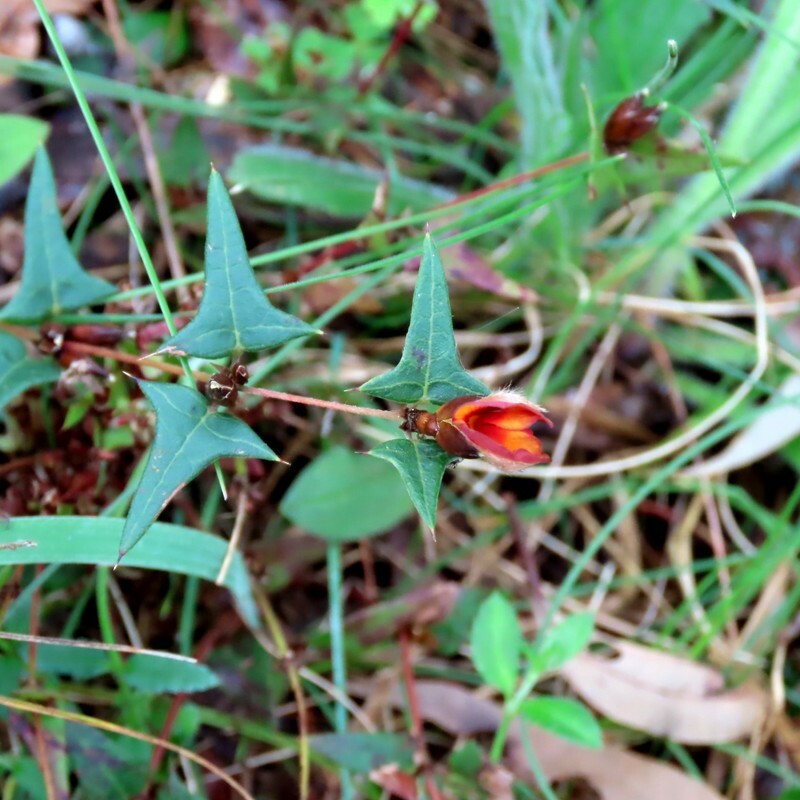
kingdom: Plantae
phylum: Tracheophyta
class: Magnoliopsida
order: Fabales
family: Fabaceae
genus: Platylobium
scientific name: Platylobium obtusangulum
